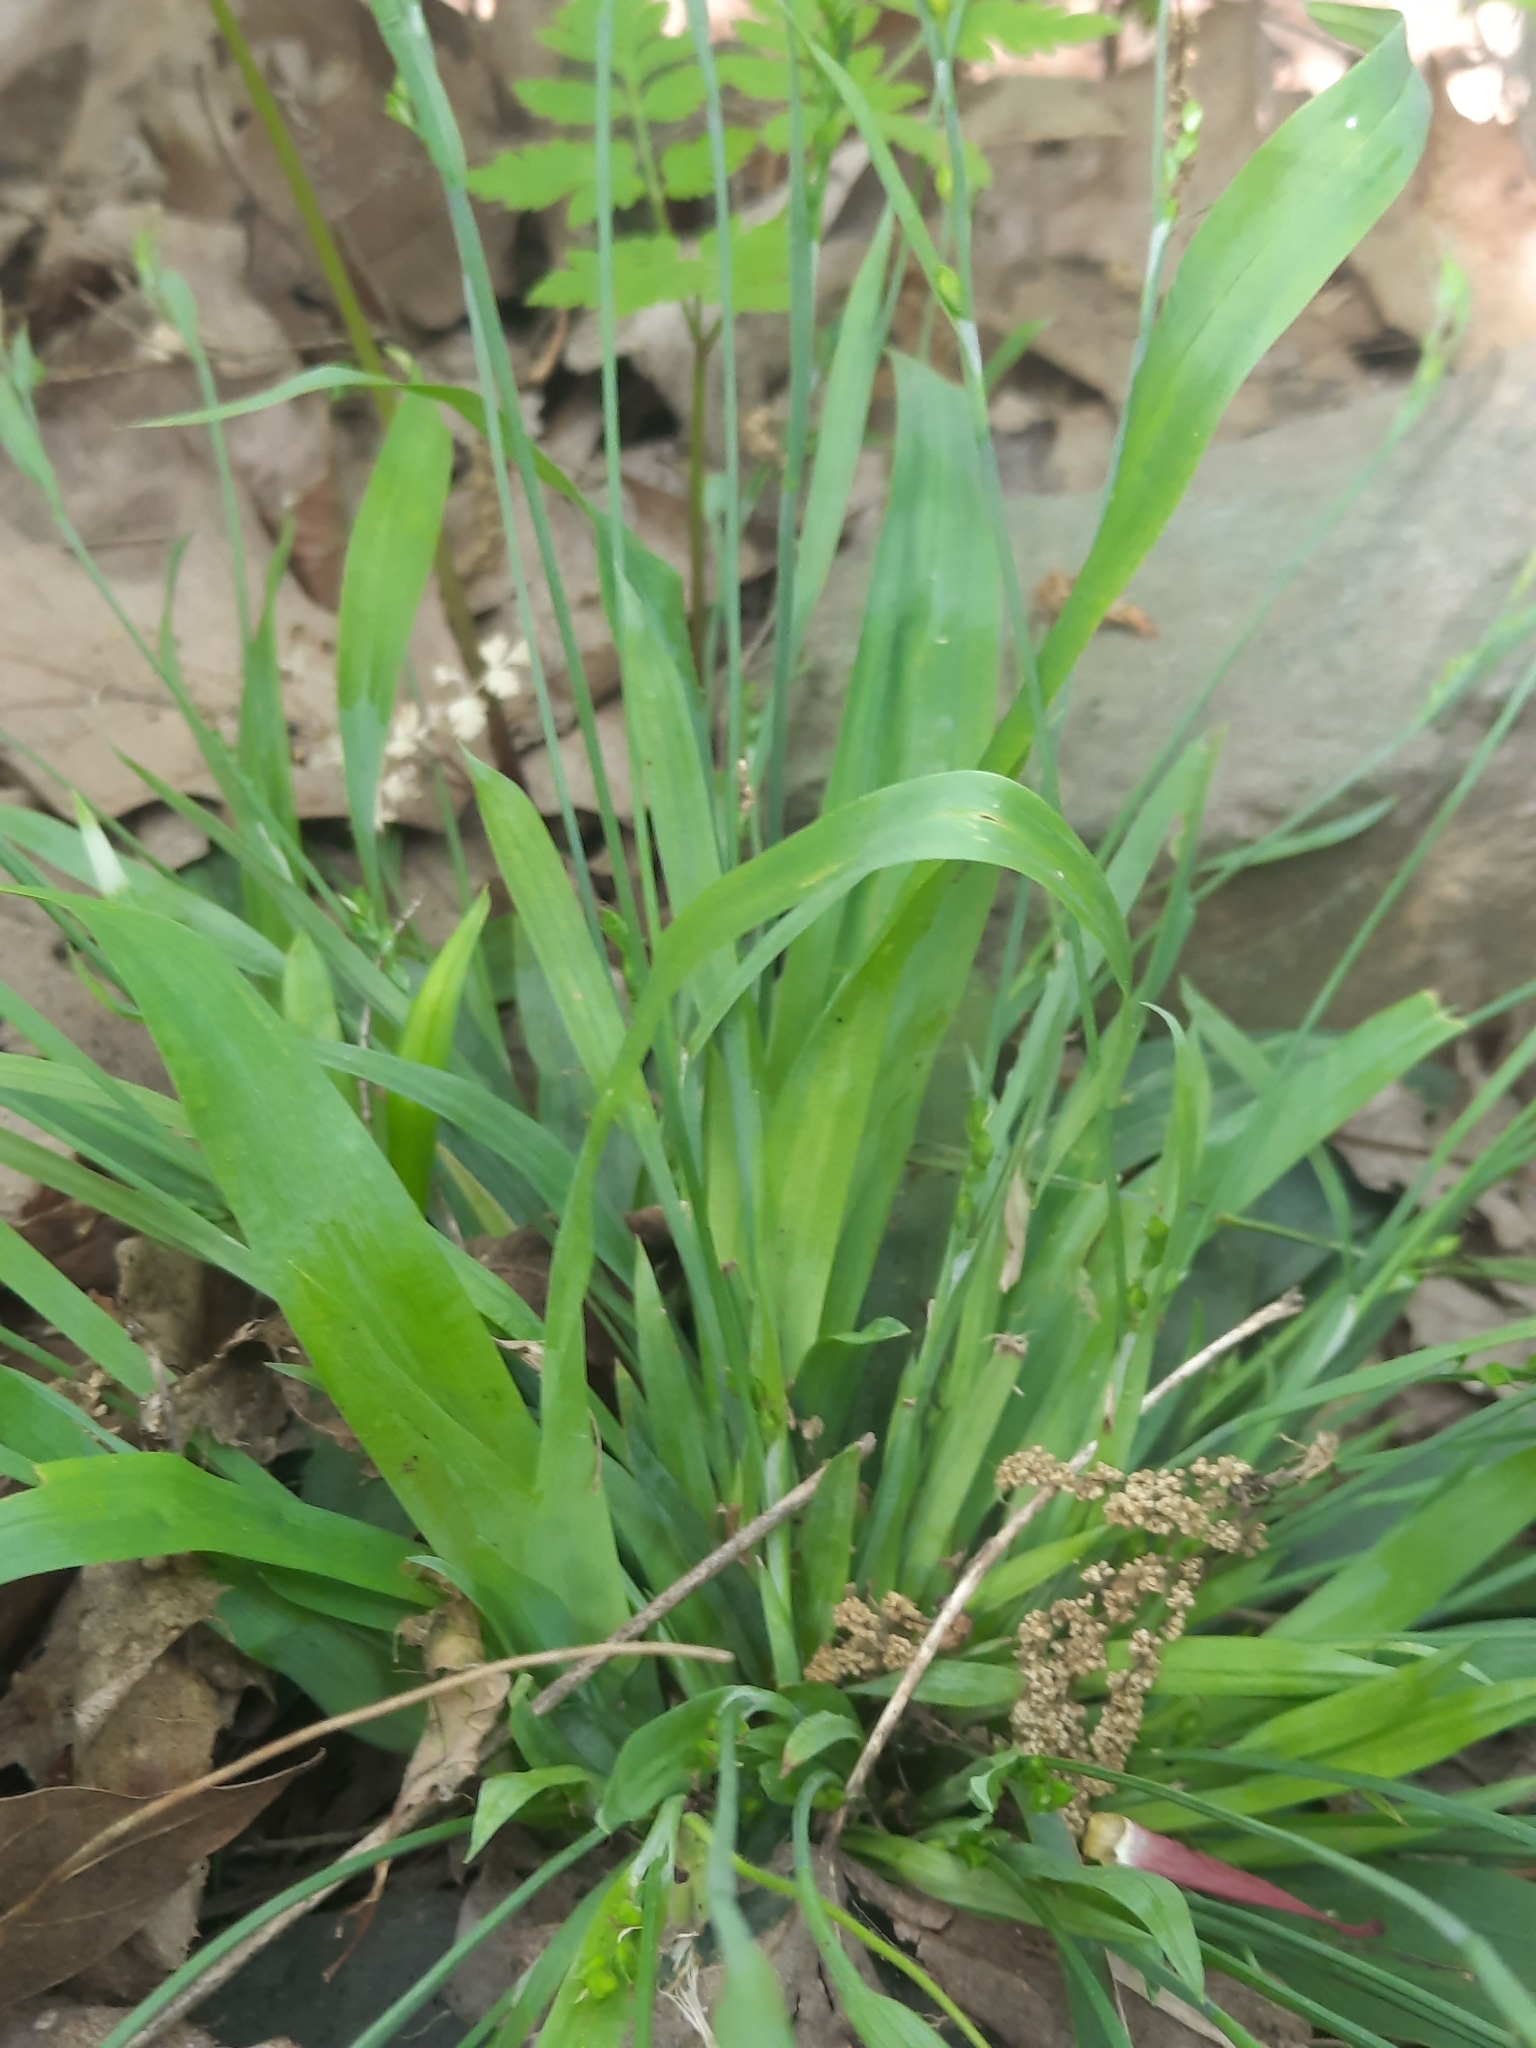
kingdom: Plantae
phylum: Tracheophyta
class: Liliopsida
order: Poales
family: Cyperaceae
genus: Carex
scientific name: Carex platyphylla
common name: Broad-leaved sedge
